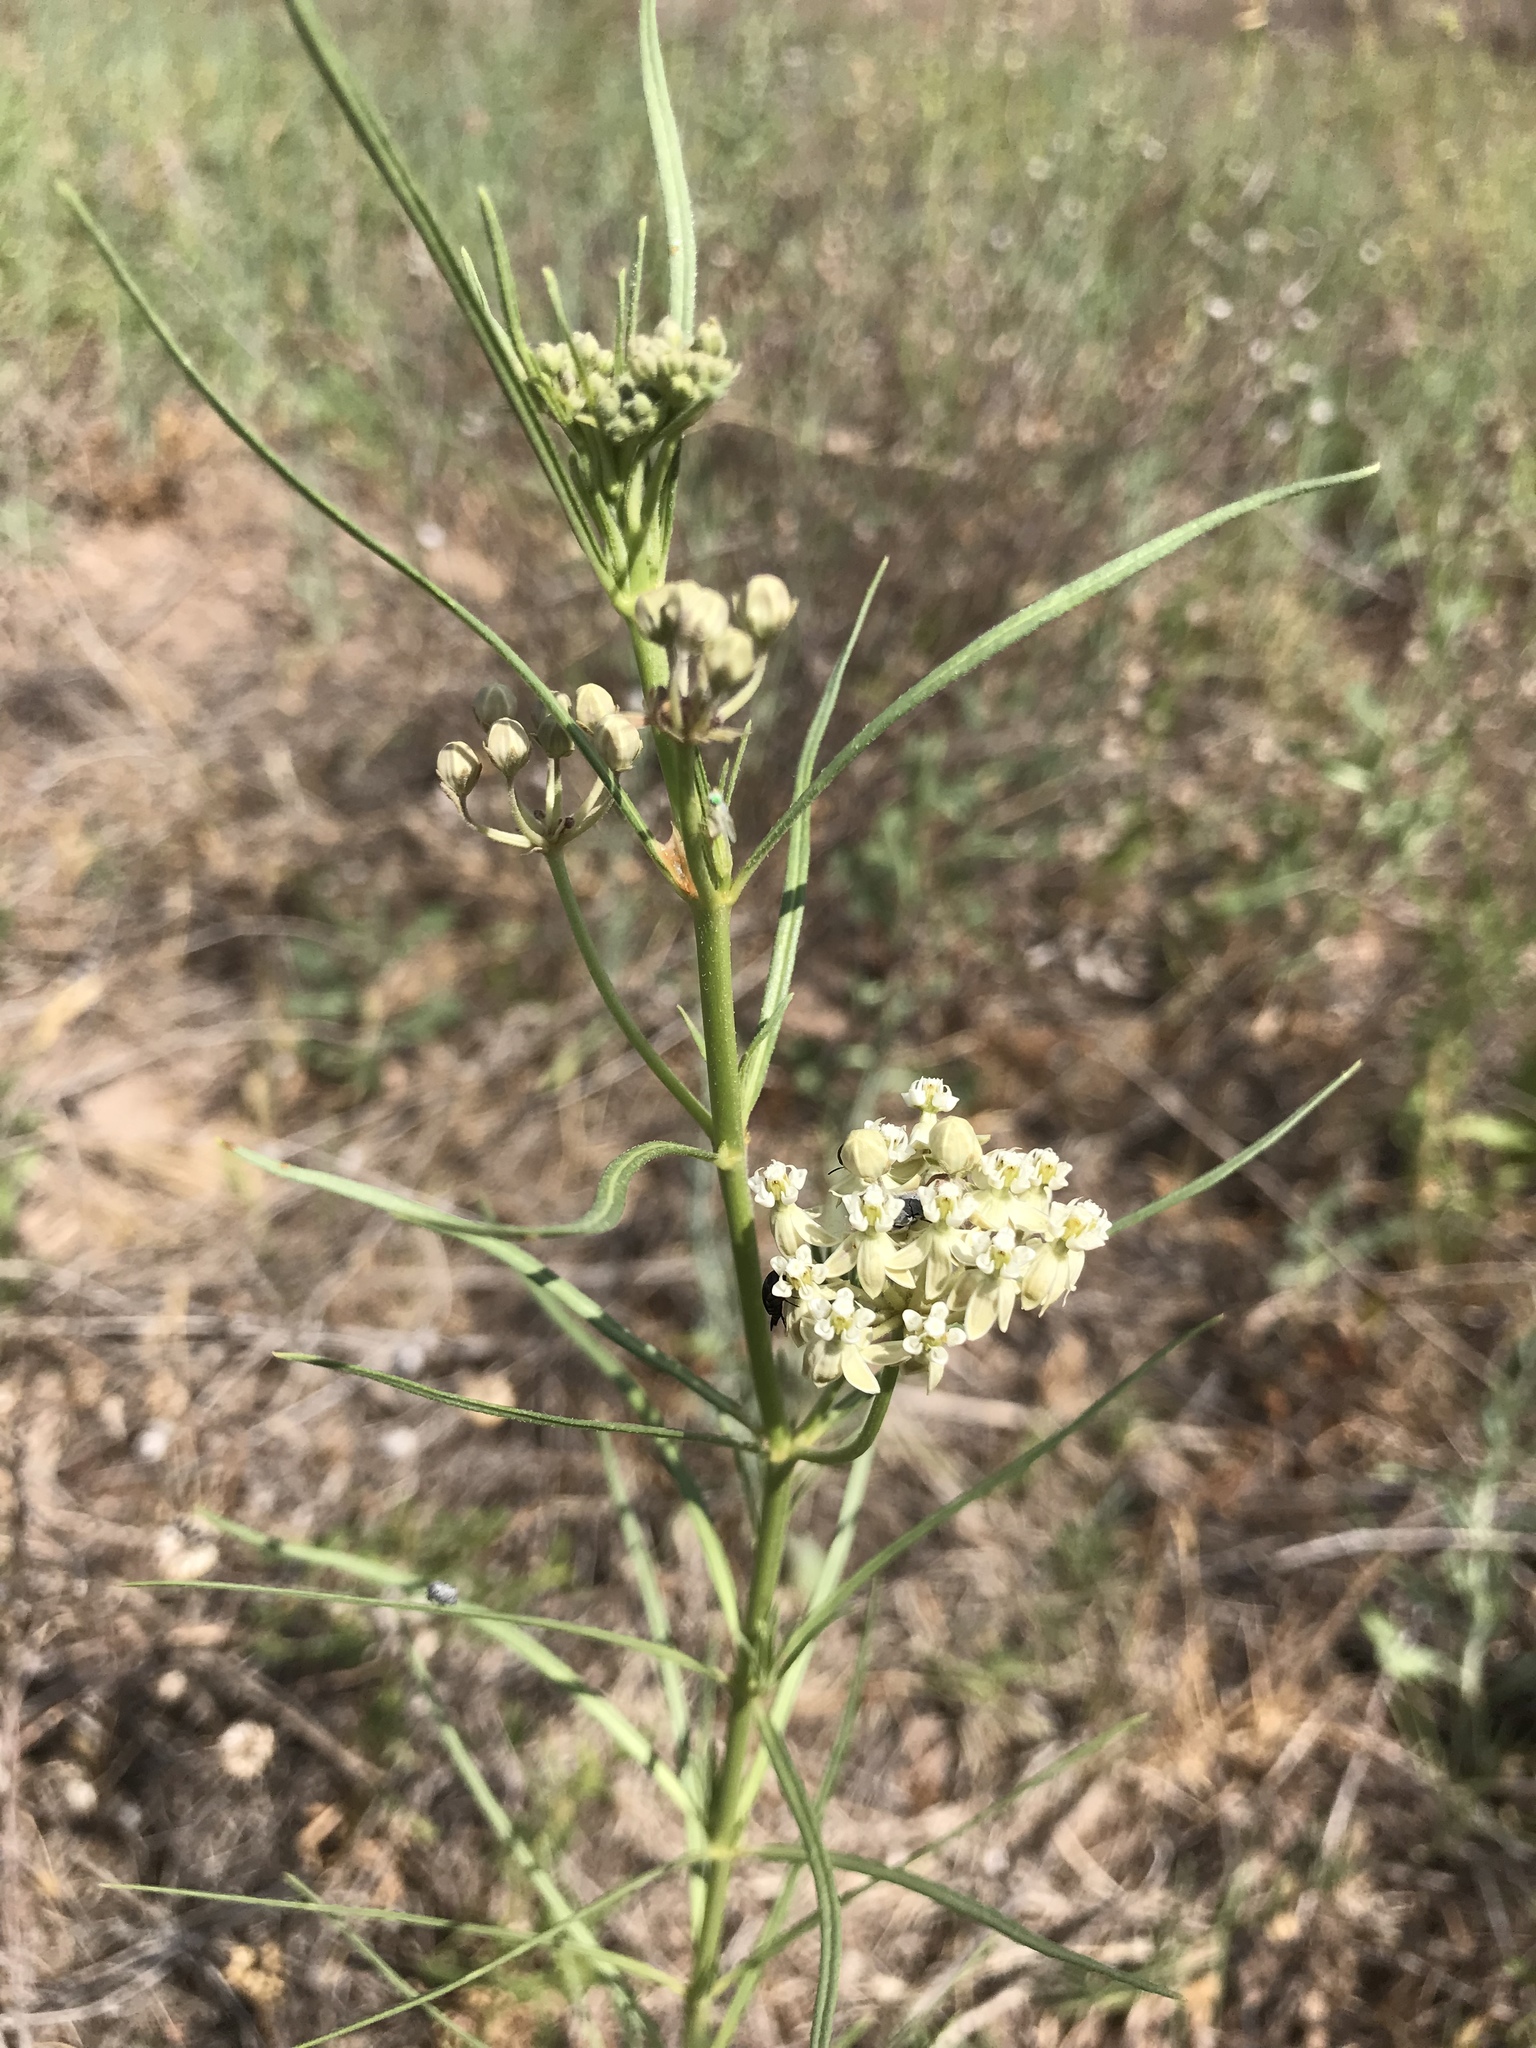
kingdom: Plantae
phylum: Tracheophyta
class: Magnoliopsida
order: Gentianales
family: Apocynaceae
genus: Asclepias
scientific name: Asclepias subverticillata
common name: Horsetail milkweed
